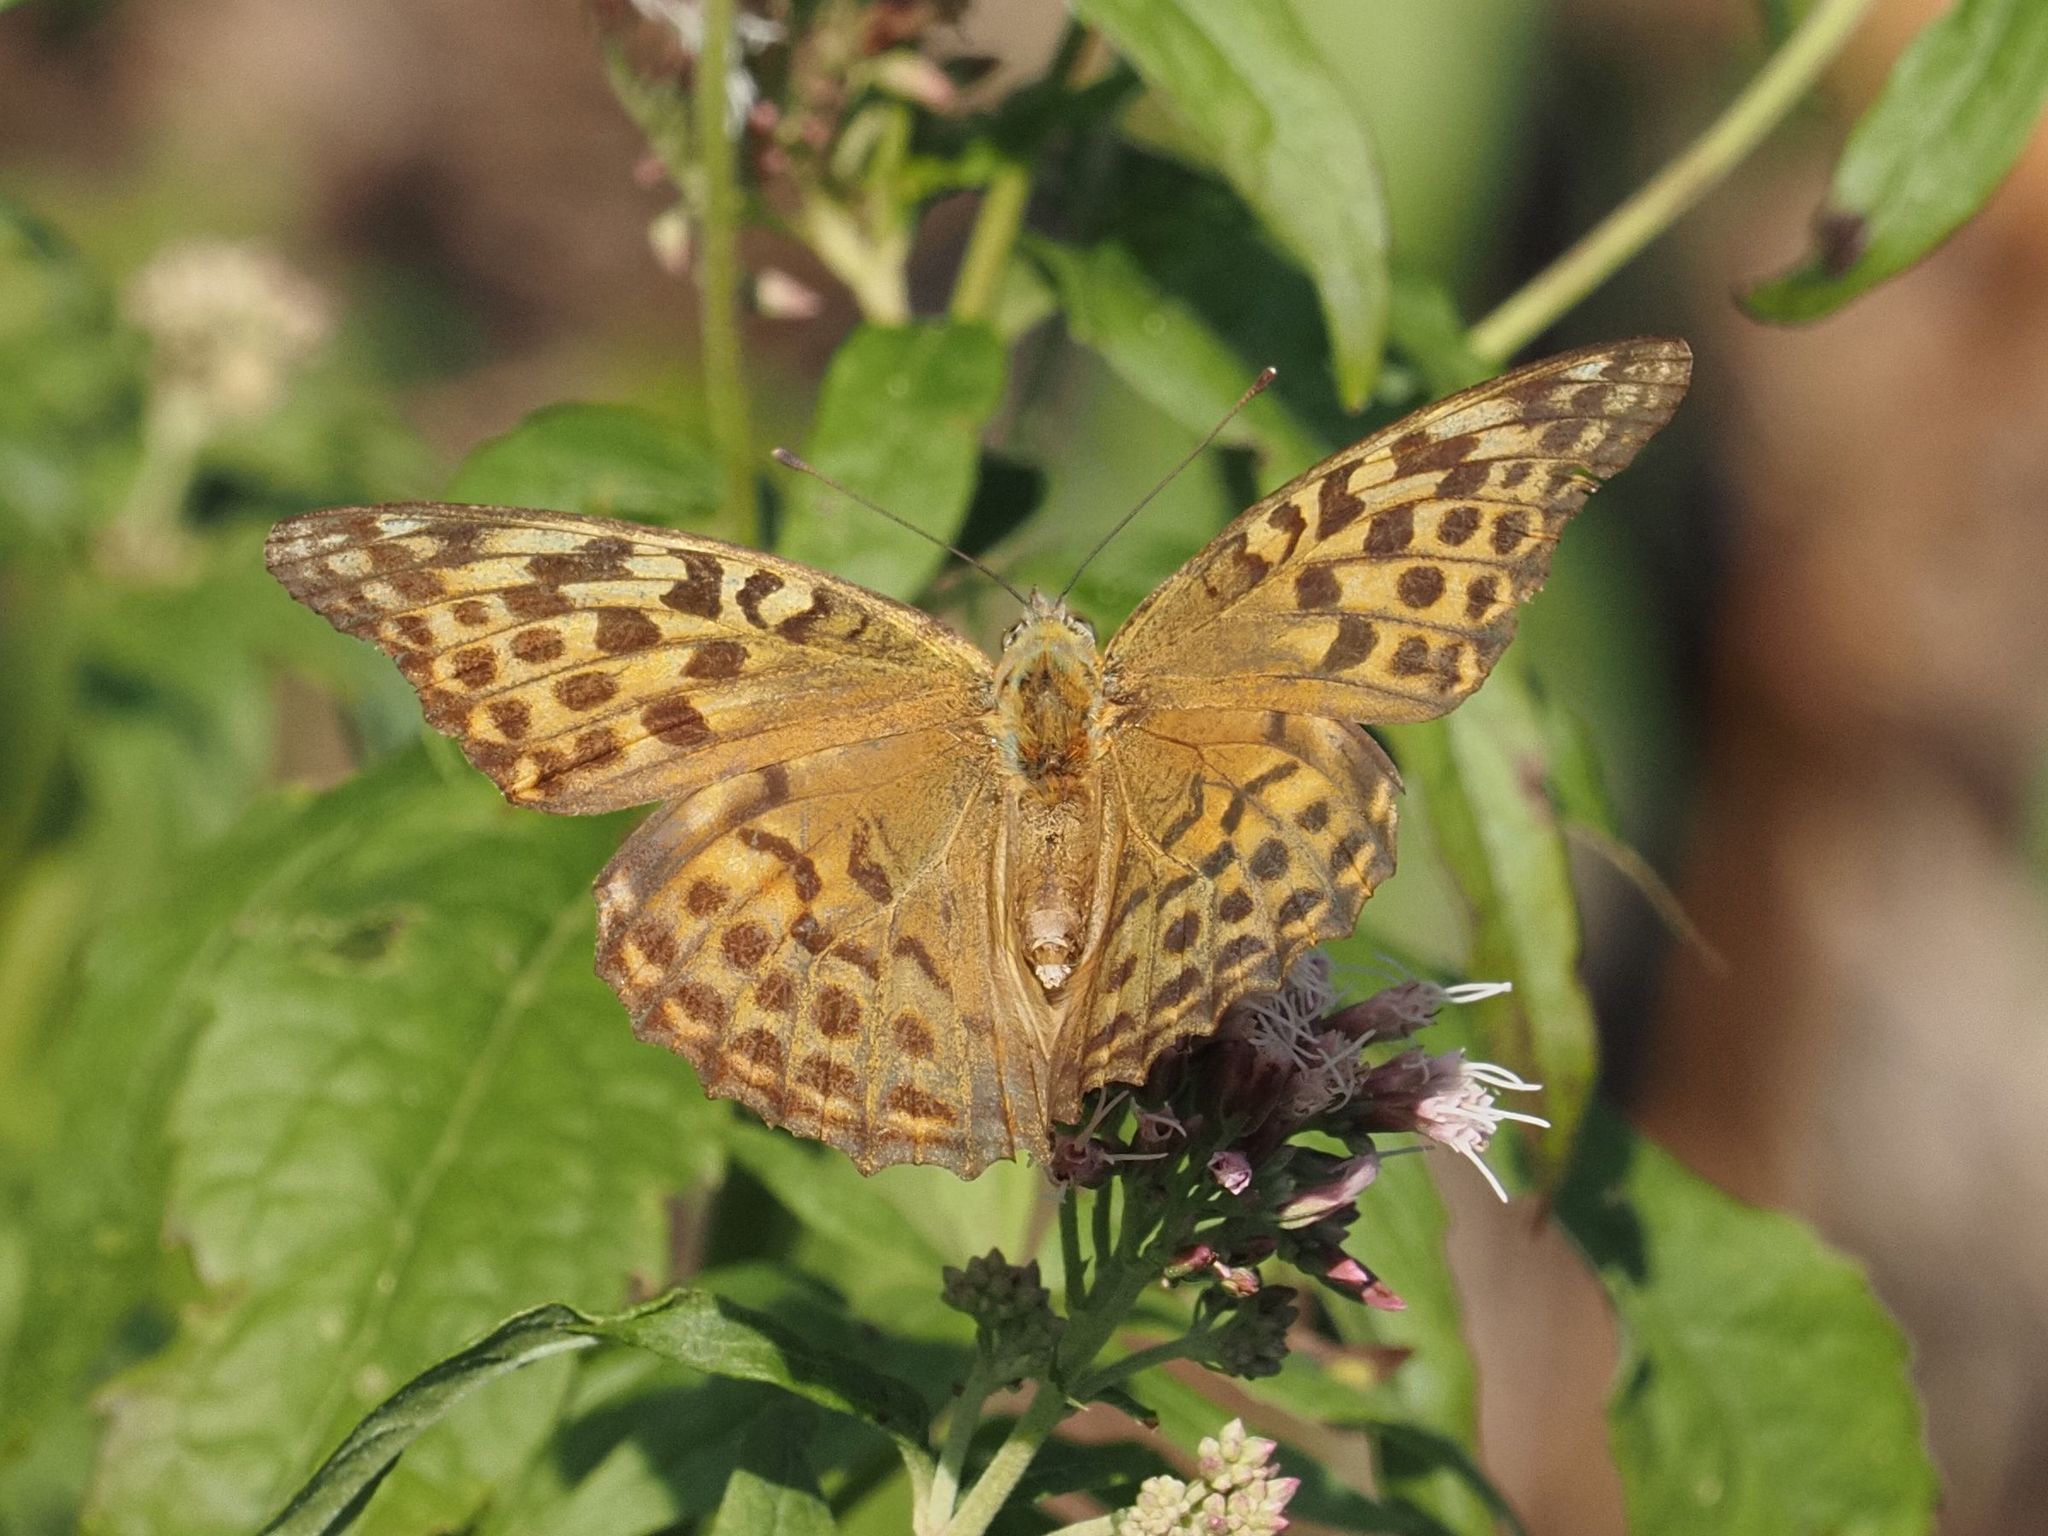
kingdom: Animalia
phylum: Arthropoda
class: Insecta
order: Lepidoptera
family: Nymphalidae
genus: Argynnis
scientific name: Argynnis paphia
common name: Silver-washed fritillary
